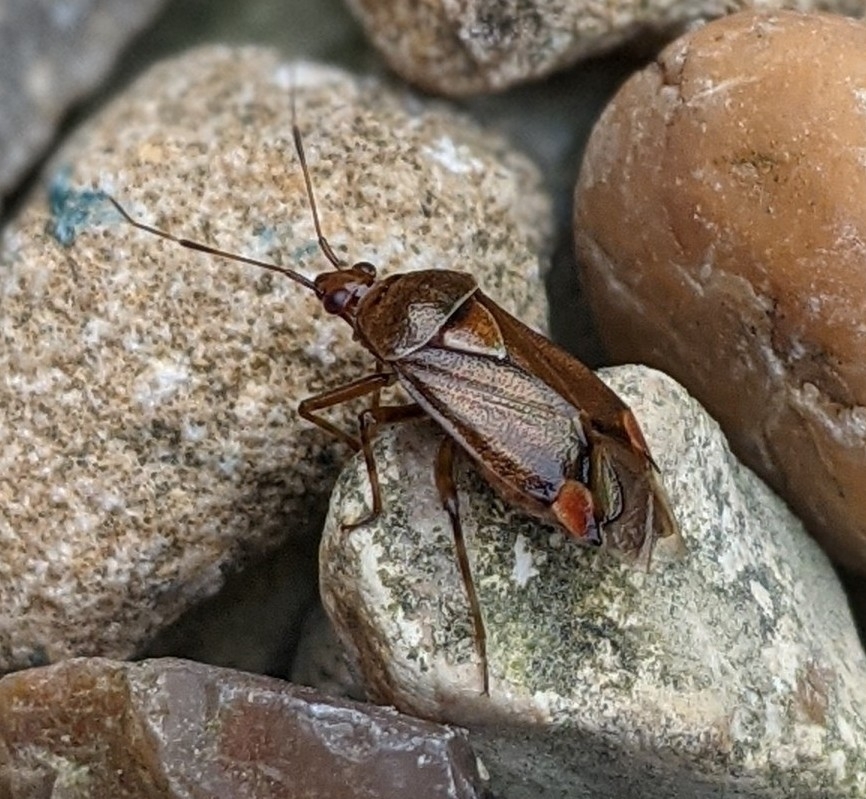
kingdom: Animalia
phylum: Arthropoda
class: Insecta
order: Hemiptera
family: Miridae
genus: Deraeocoris
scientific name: Deraeocoris flavilinea
